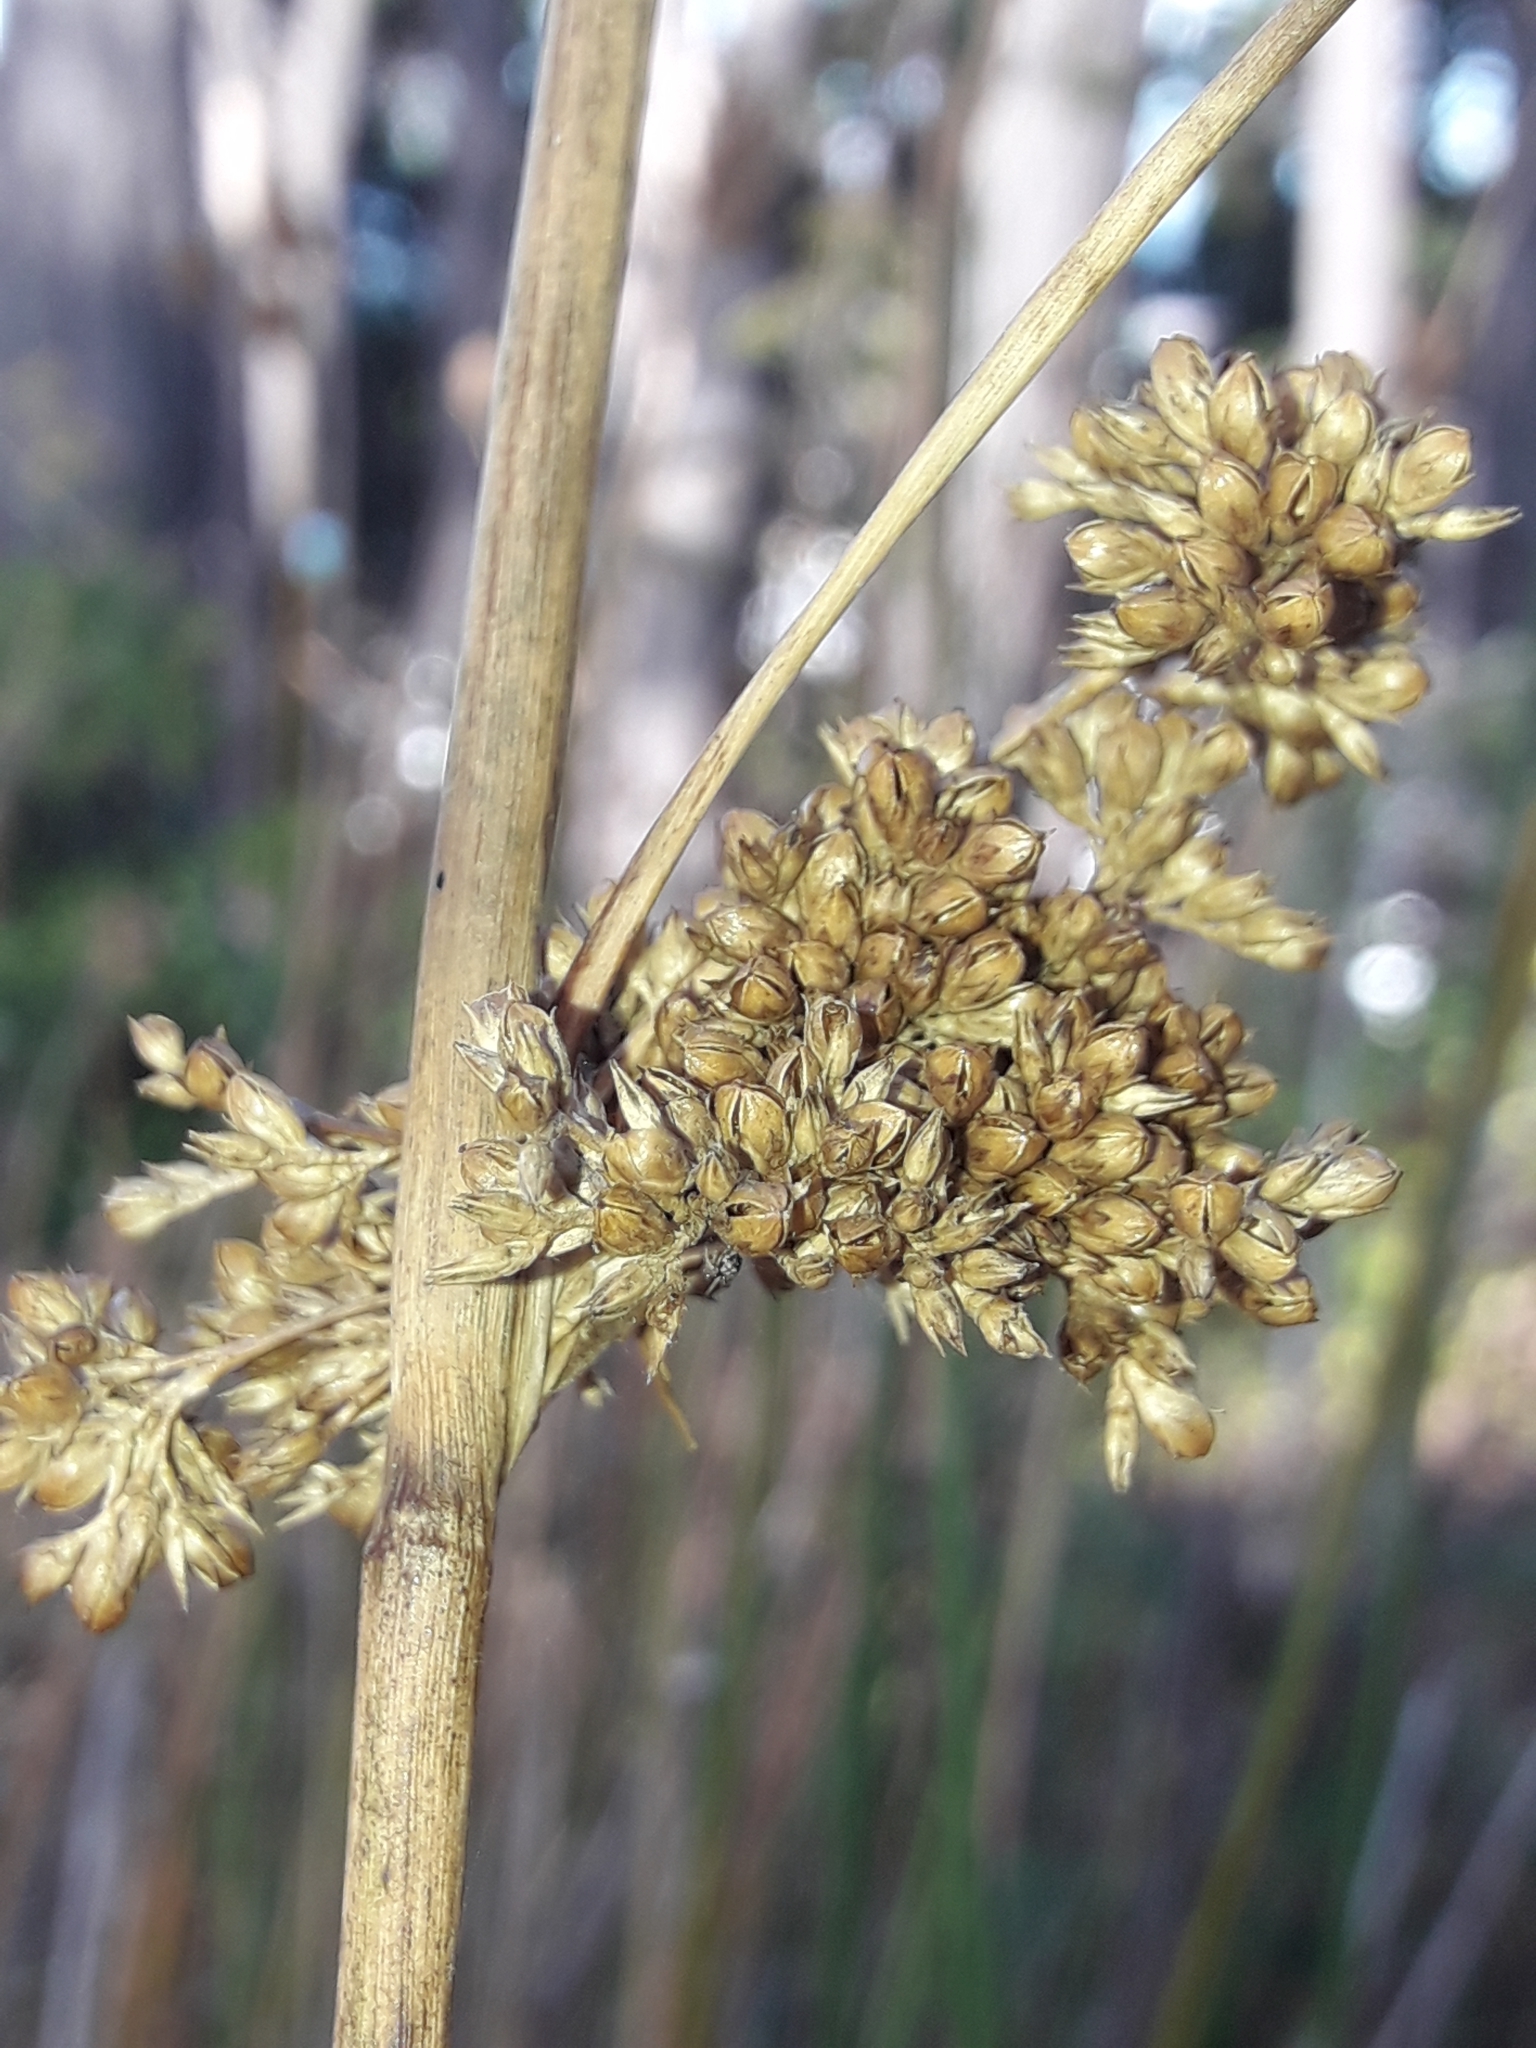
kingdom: Plantae
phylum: Tracheophyta
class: Liliopsida
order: Poales
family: Juncaceae
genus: Juncus
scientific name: Juncus pallidus
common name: Great soft-rush
